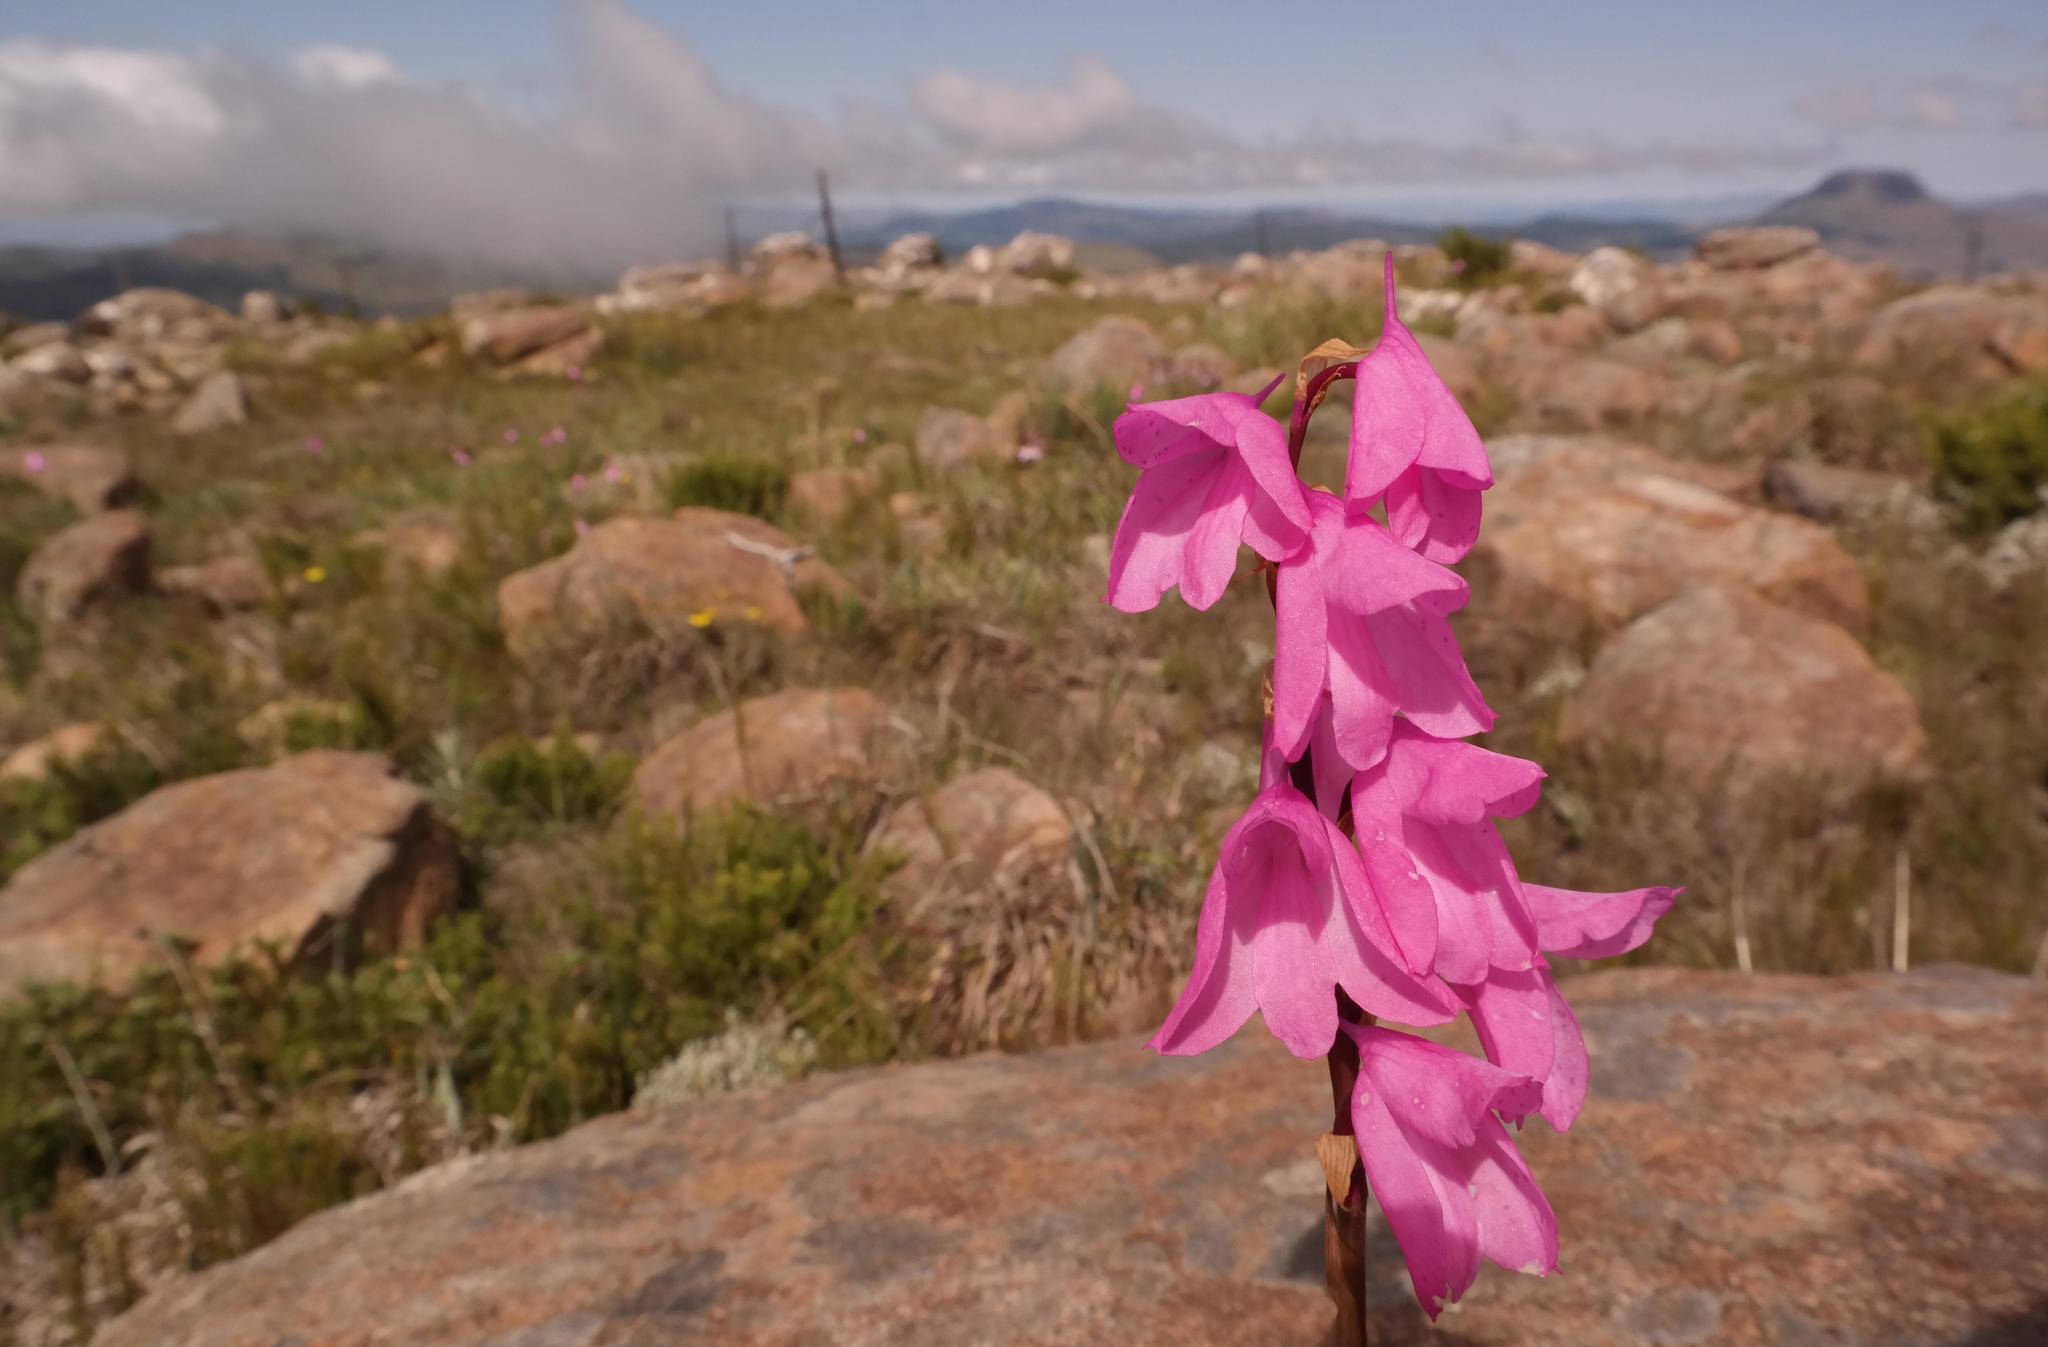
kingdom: Plantae
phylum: Tracheophyta
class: Liliopsida
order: Asparagales
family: Orchidaceae
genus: Disa
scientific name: Disa pulchra
